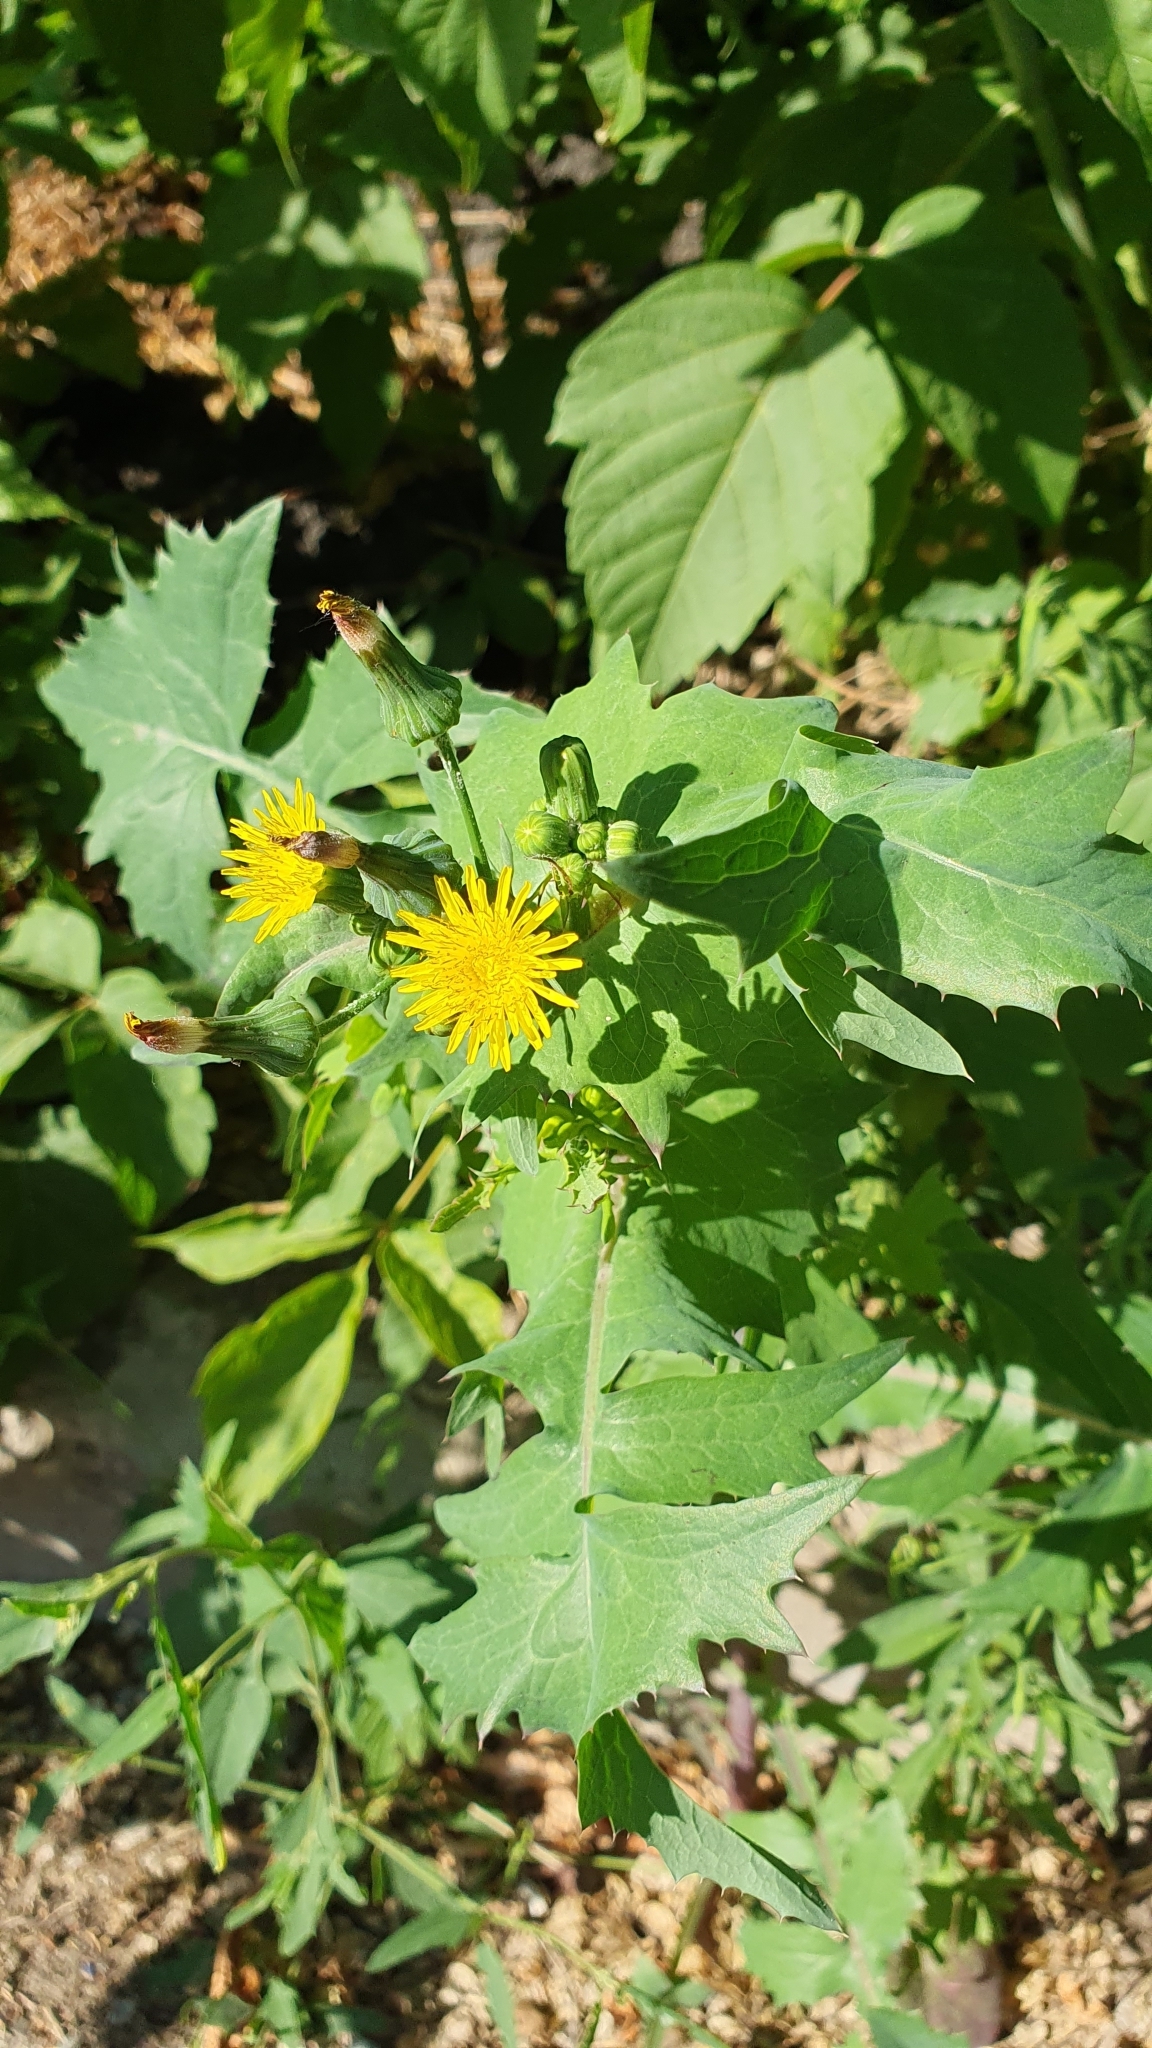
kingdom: Plantae
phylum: Tracheophyta
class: Magnoliopsida
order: Asterales
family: Asteraceae
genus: Sonchus
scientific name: Sonchus oleraceus
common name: Common sowthistle
